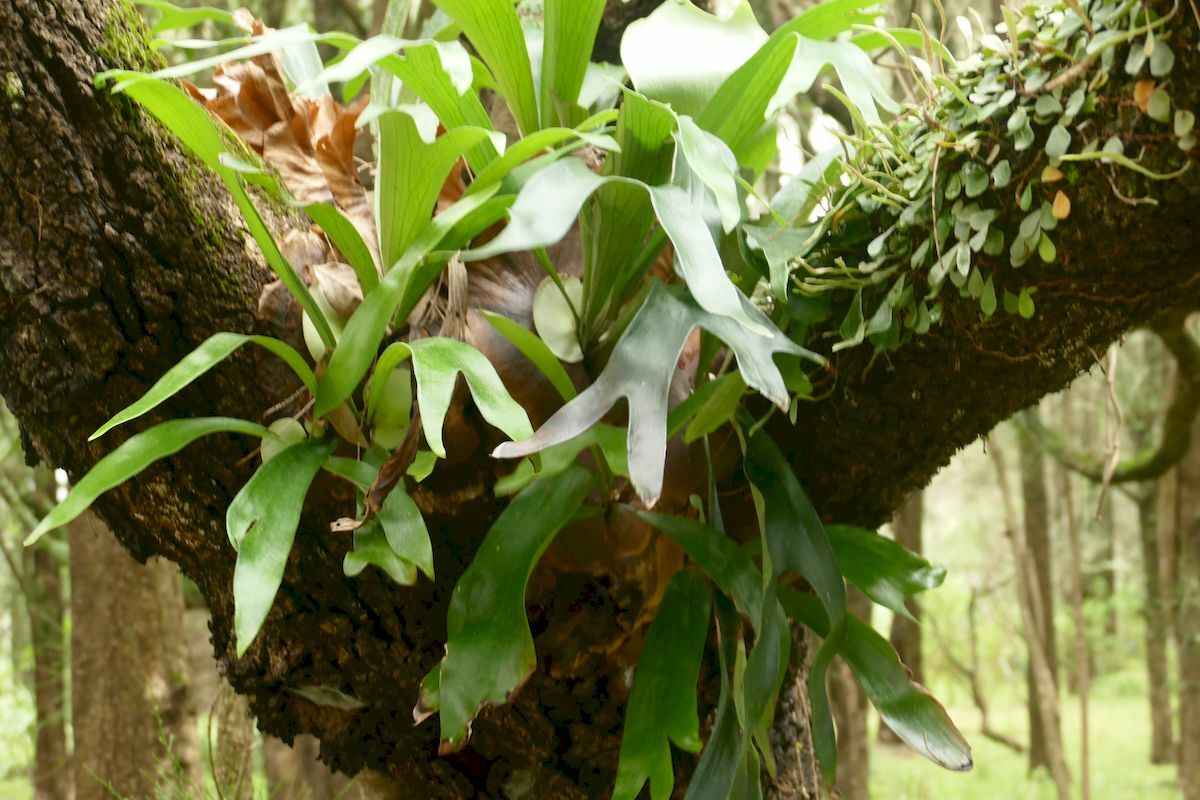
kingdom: Plantae
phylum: Tracheophyta
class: Polypodiopsida
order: Polypodiales
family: Polypodiaceae
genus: Platycerium
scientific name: Platycerium bifurcatum
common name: Elkhorn fern
